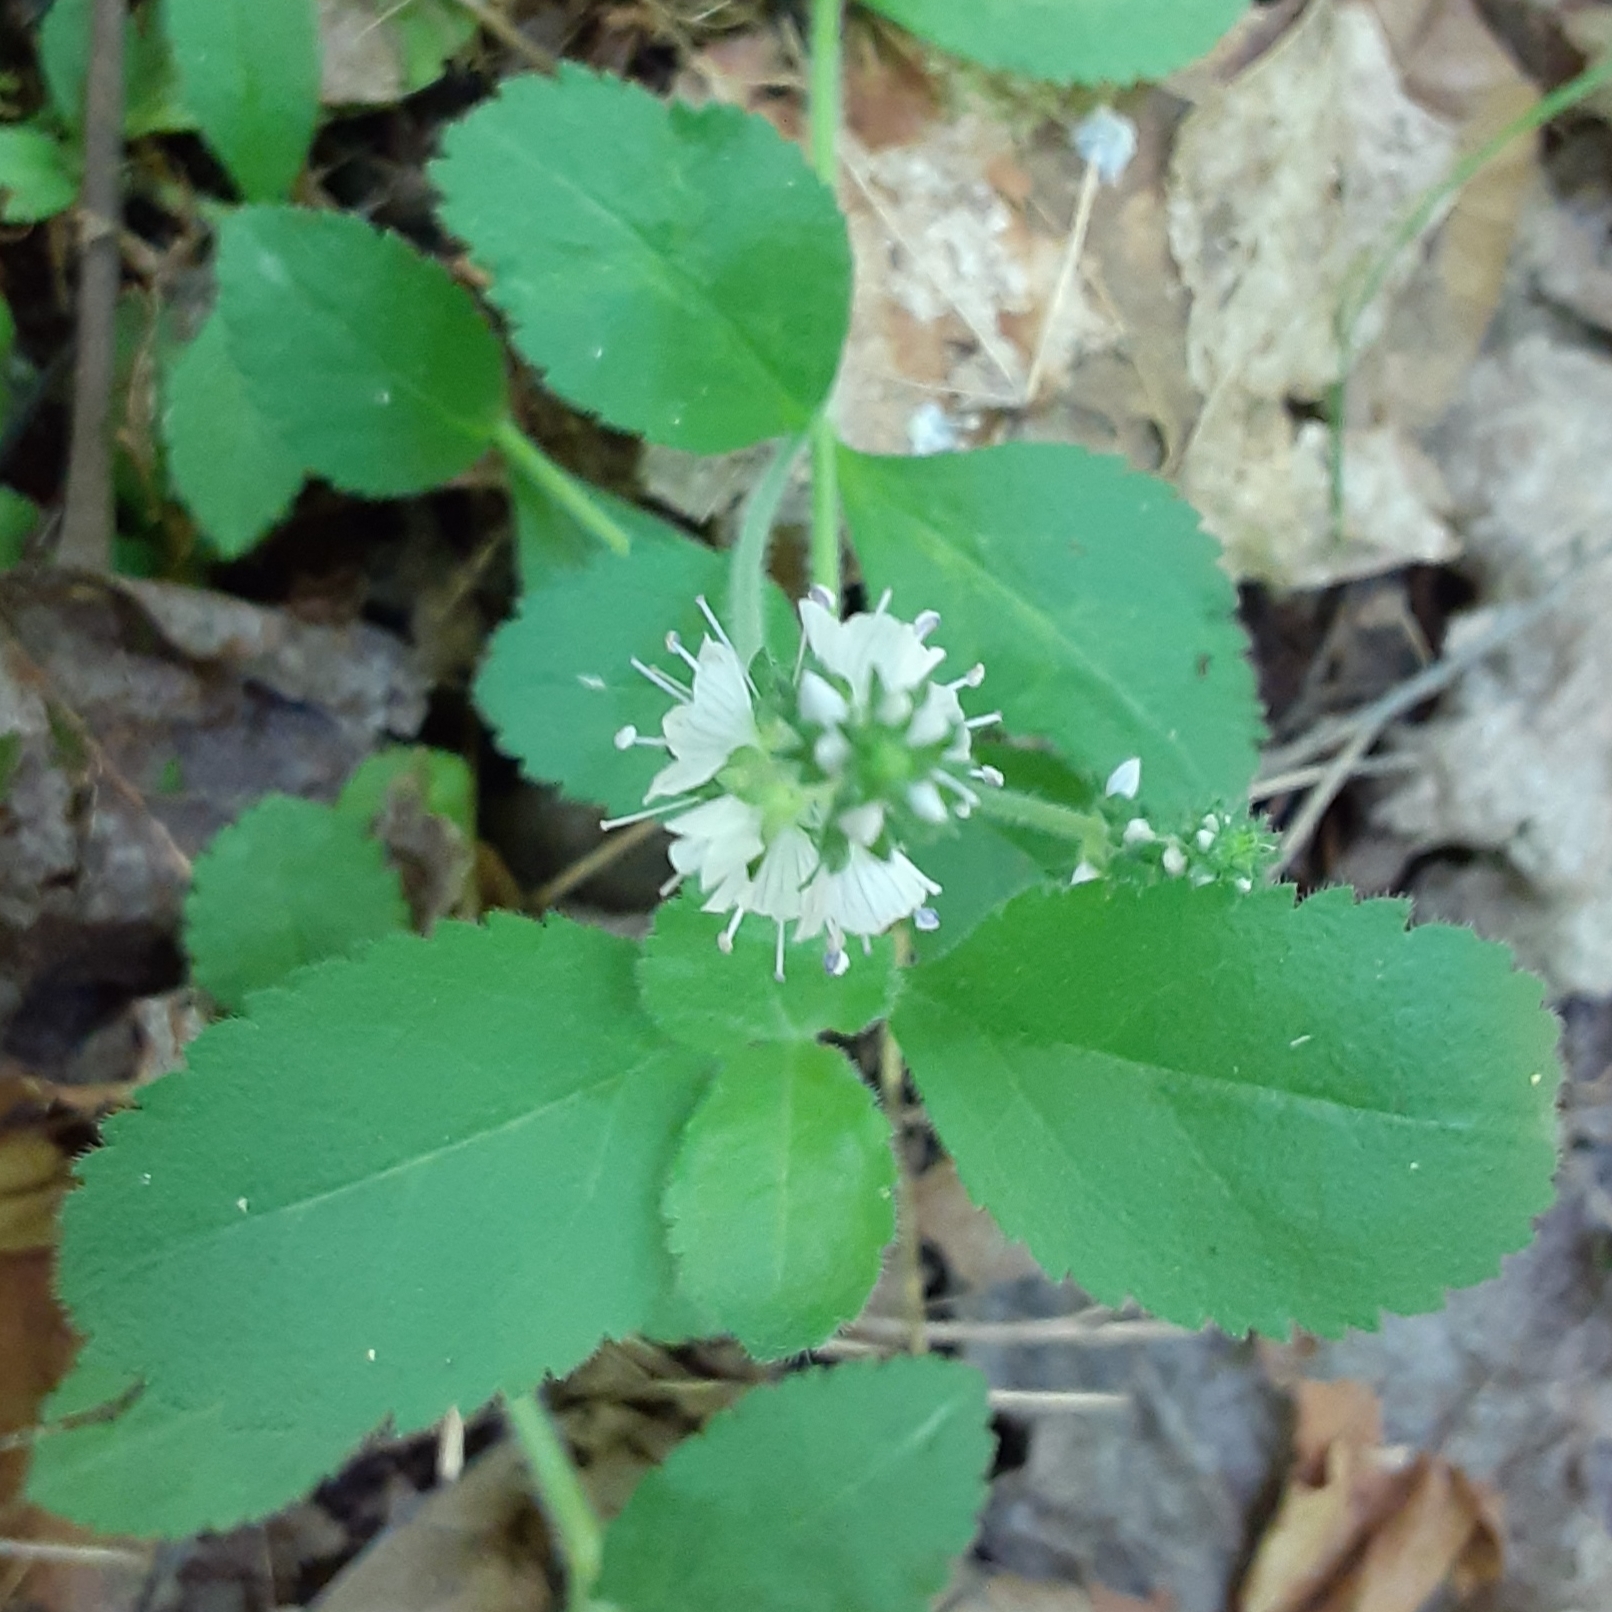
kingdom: Plantae
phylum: Tracheophyta
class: Magnoliopsida
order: Lamiales
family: Plantaginaceae
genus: Veronica
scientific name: Veronica officinalis
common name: Common speedwell
